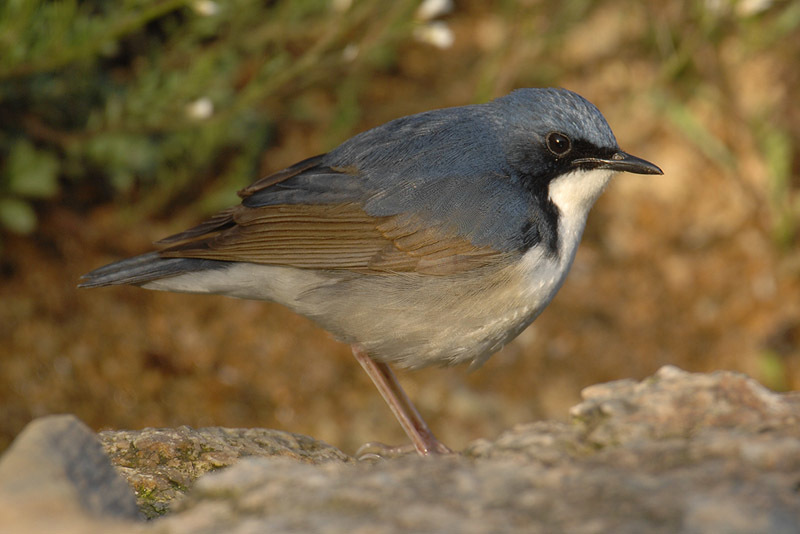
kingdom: Animalia
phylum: Chordata
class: Aves
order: Passeriformes
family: Muscicapidae
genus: Luscinia
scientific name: Luscinia cyane
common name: Siberian blue robin
